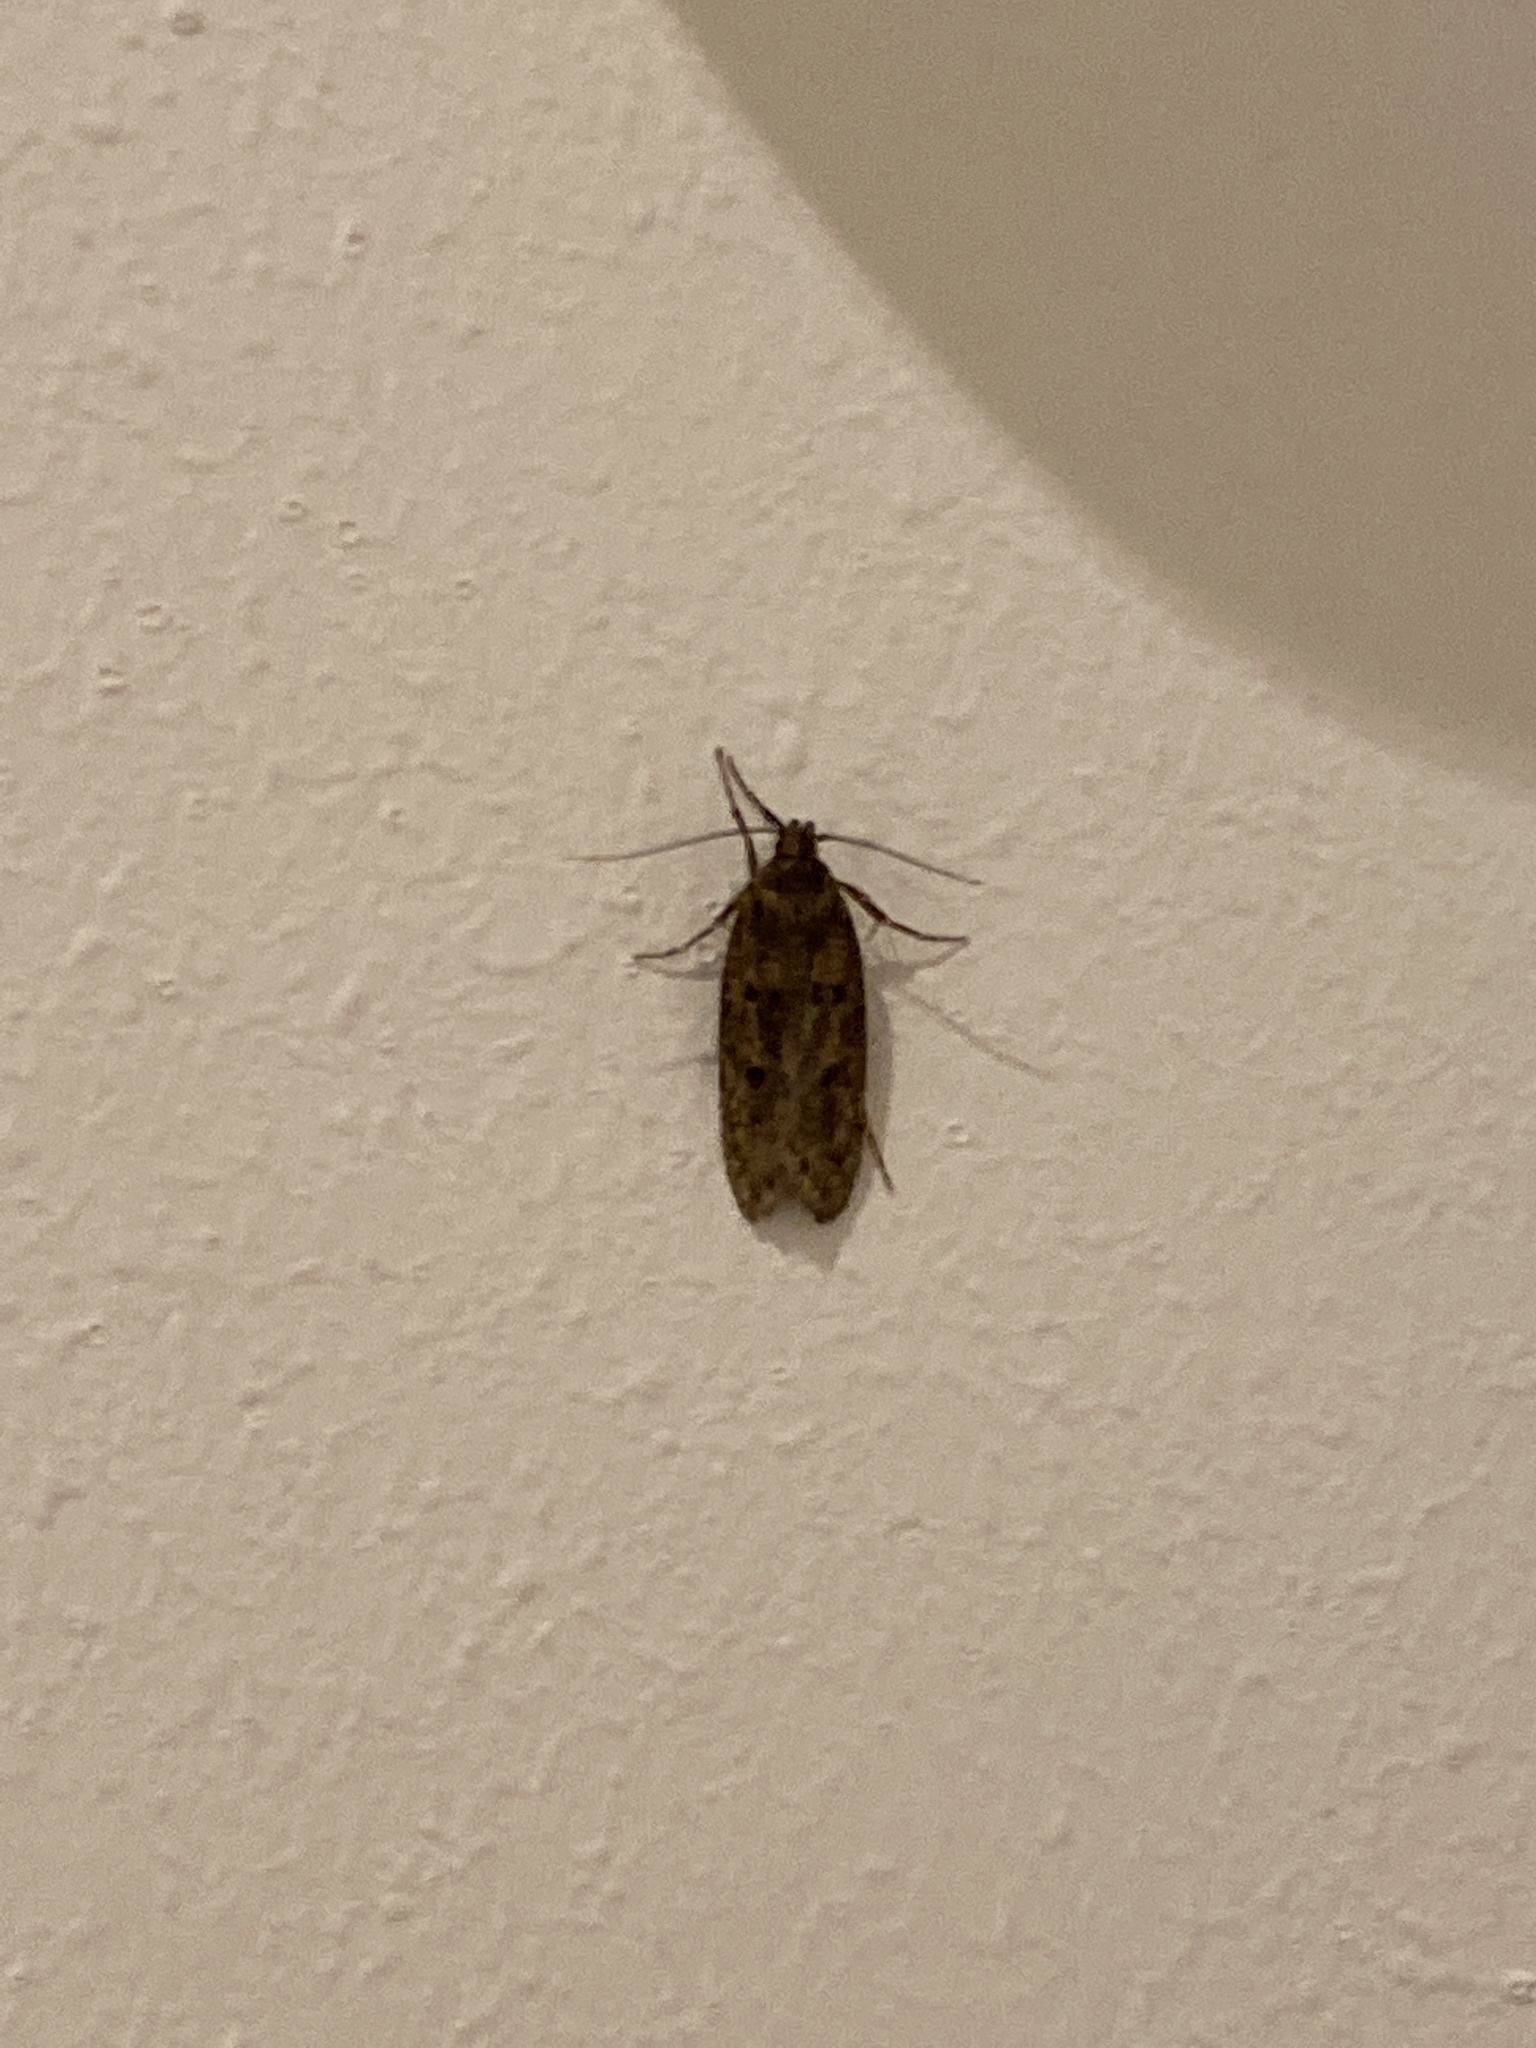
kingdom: Animalia
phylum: Arthropoda
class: Insecta
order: Lepidoptera
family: Oecophoridae
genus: Hofmannophila
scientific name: Hofmannophila pseudospretella
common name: Brown house moth
